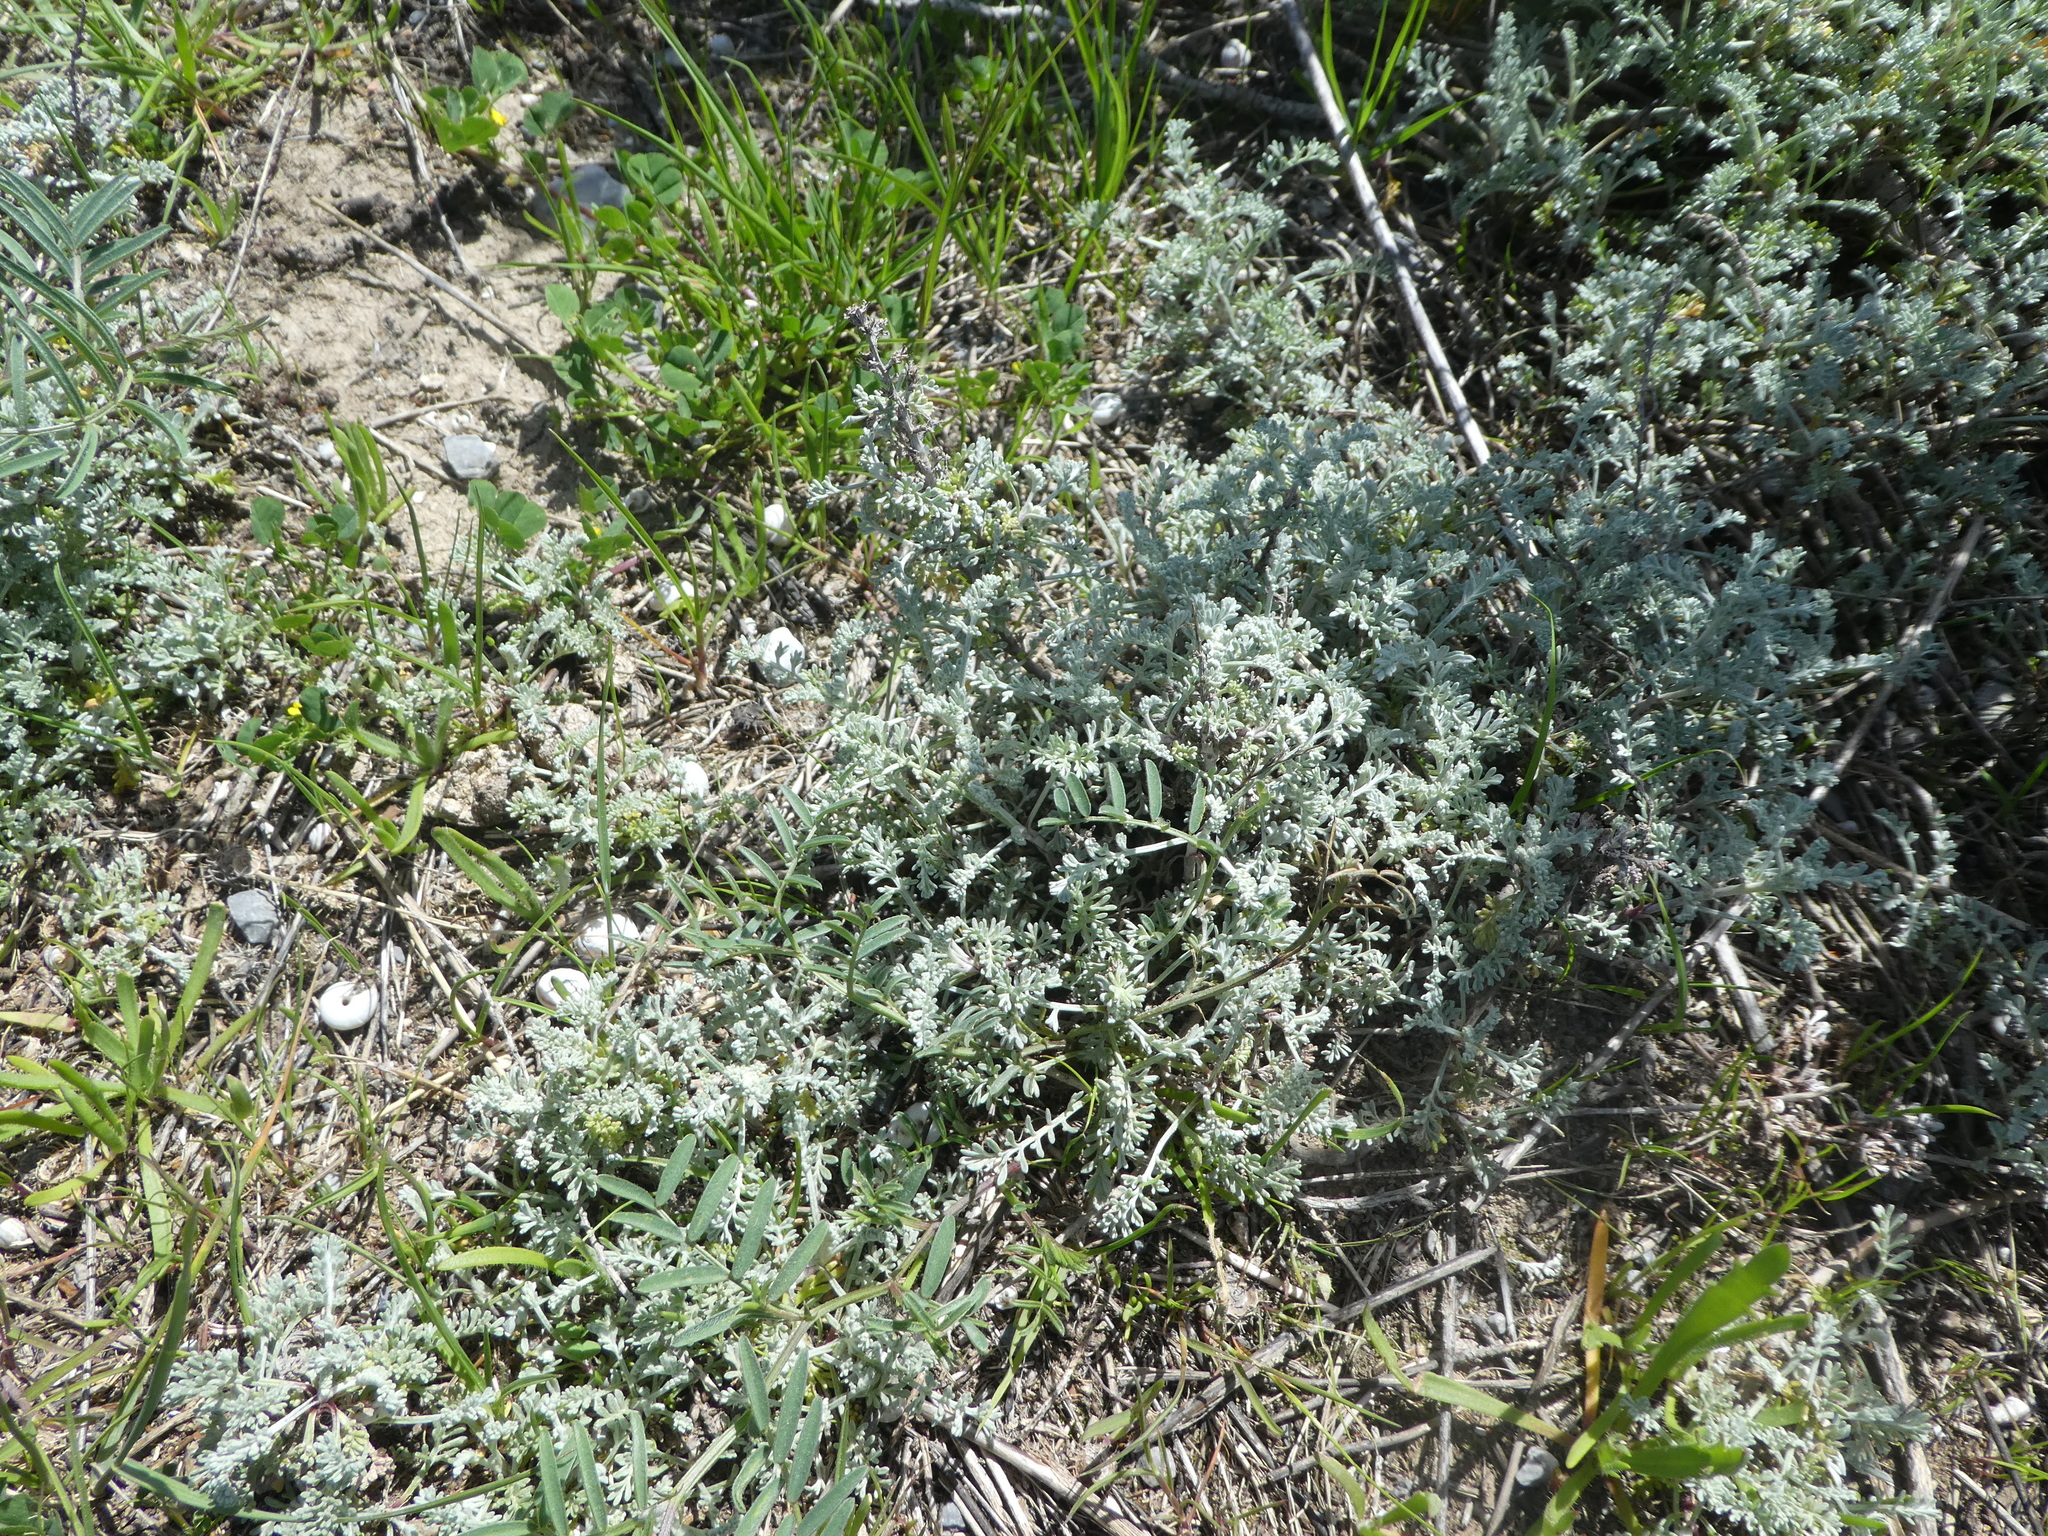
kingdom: Plantae
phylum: Tracheophyta
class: Magnoliopsida
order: Asterales
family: Asteraceae
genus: Artemisia
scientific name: Artemisia caerulescens
